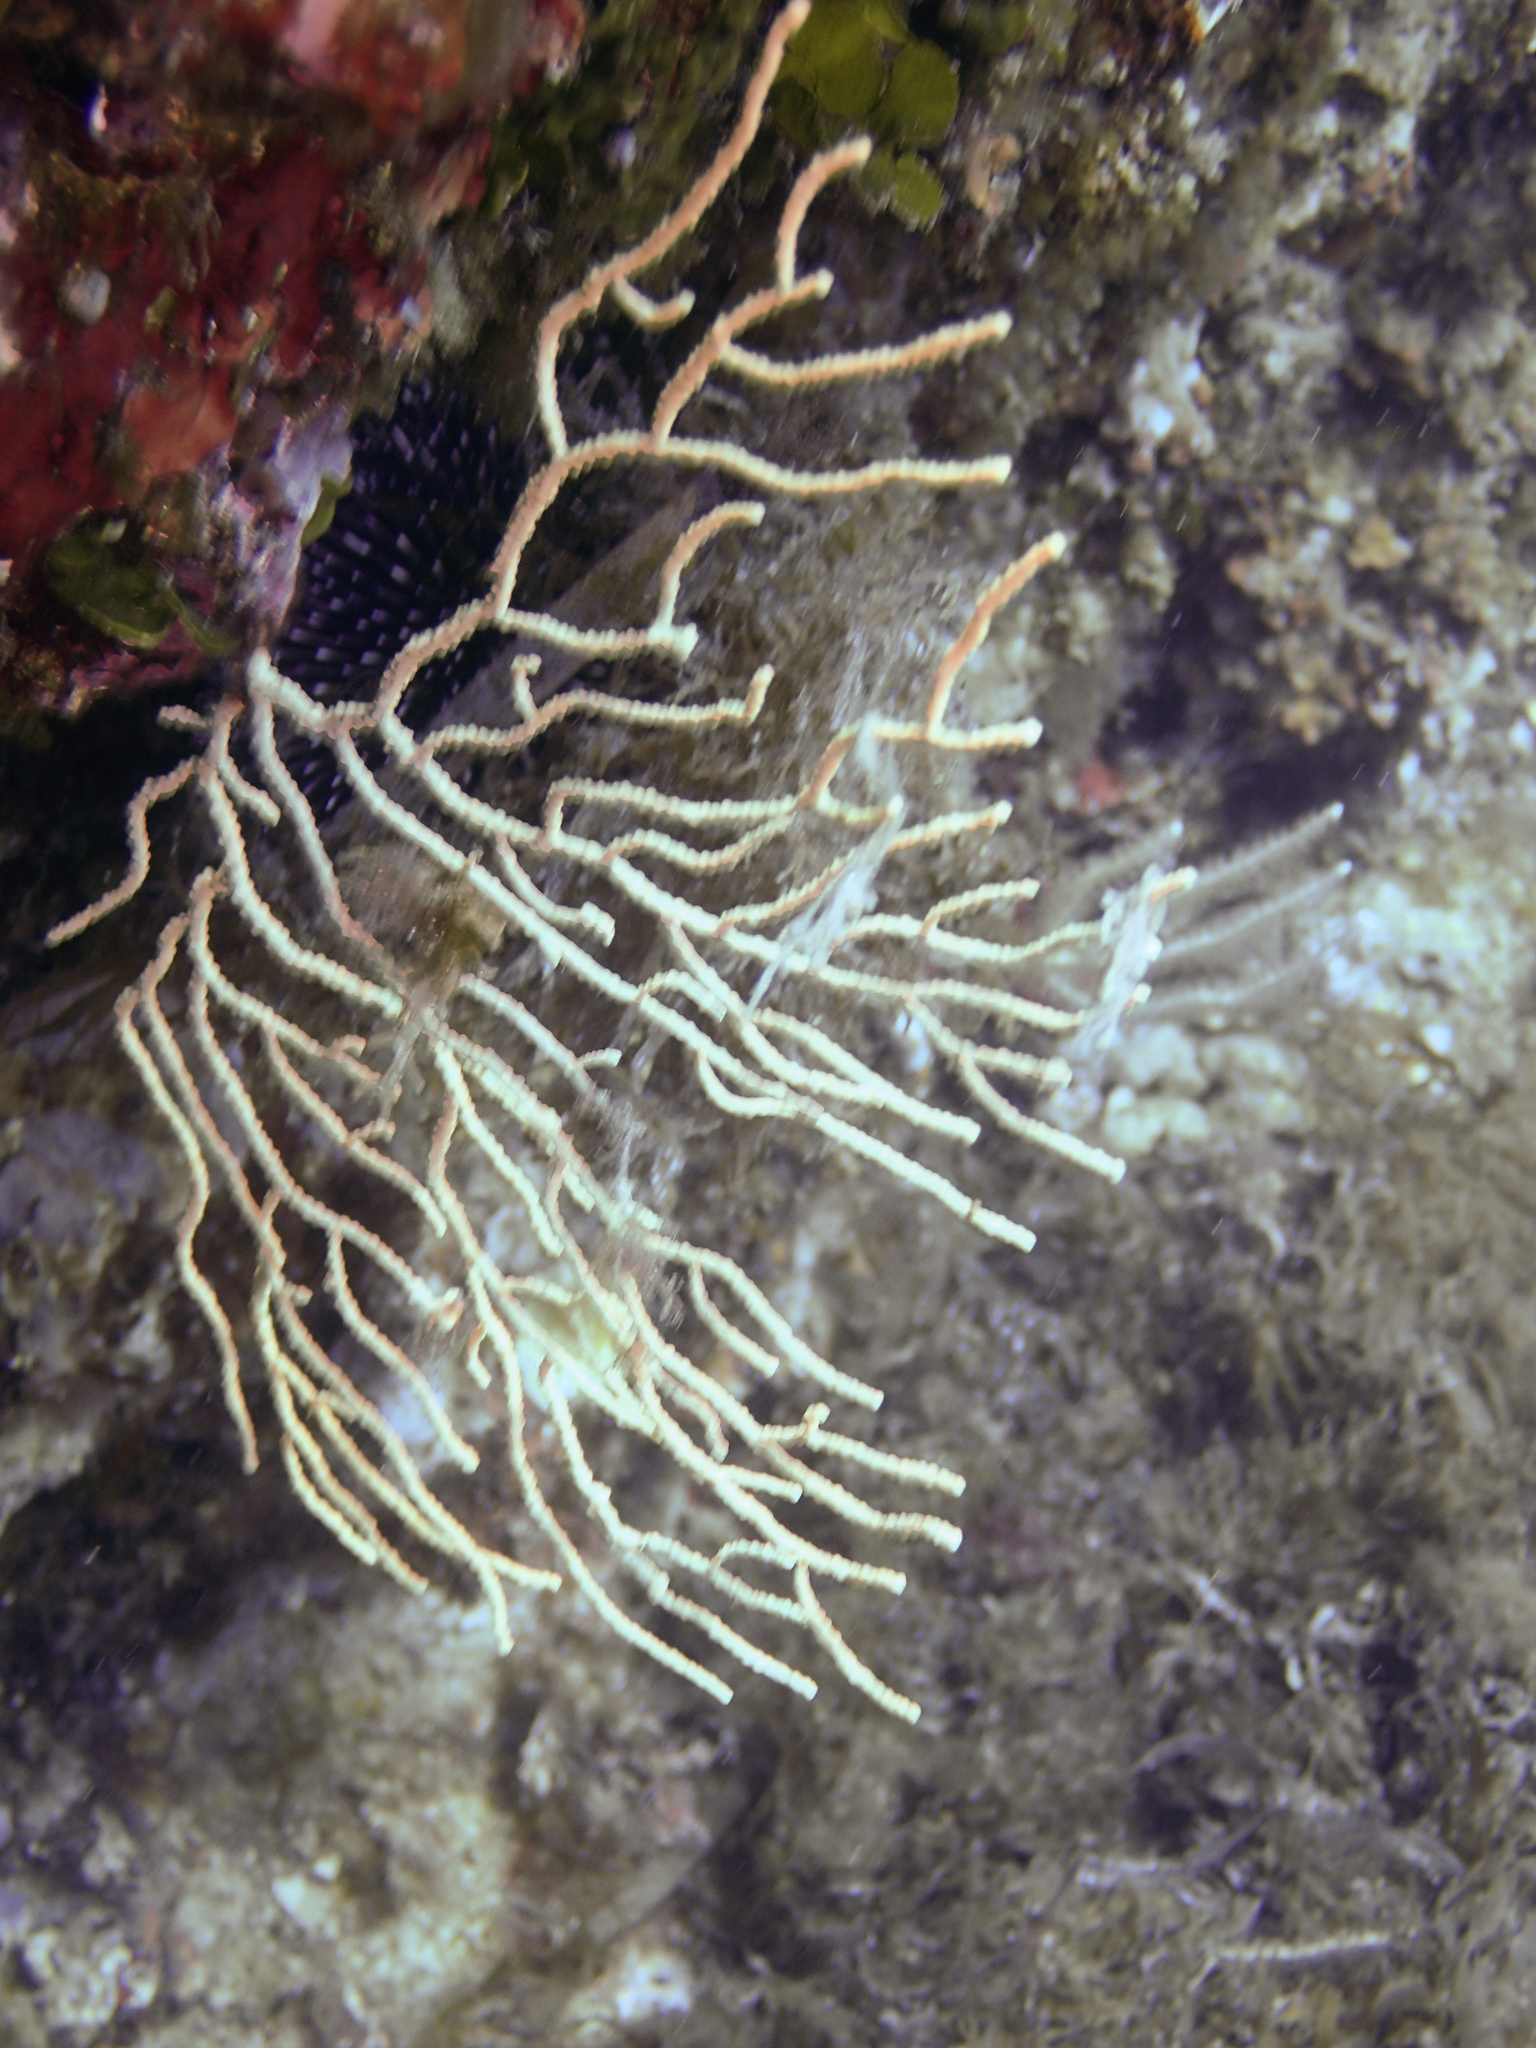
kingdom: Animalia
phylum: Cnidaria
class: Anthozoa
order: Malacalcyonacea
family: Eunicellidae
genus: Eunicella
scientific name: Eunicella cavolini
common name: Yellow gorgonian
